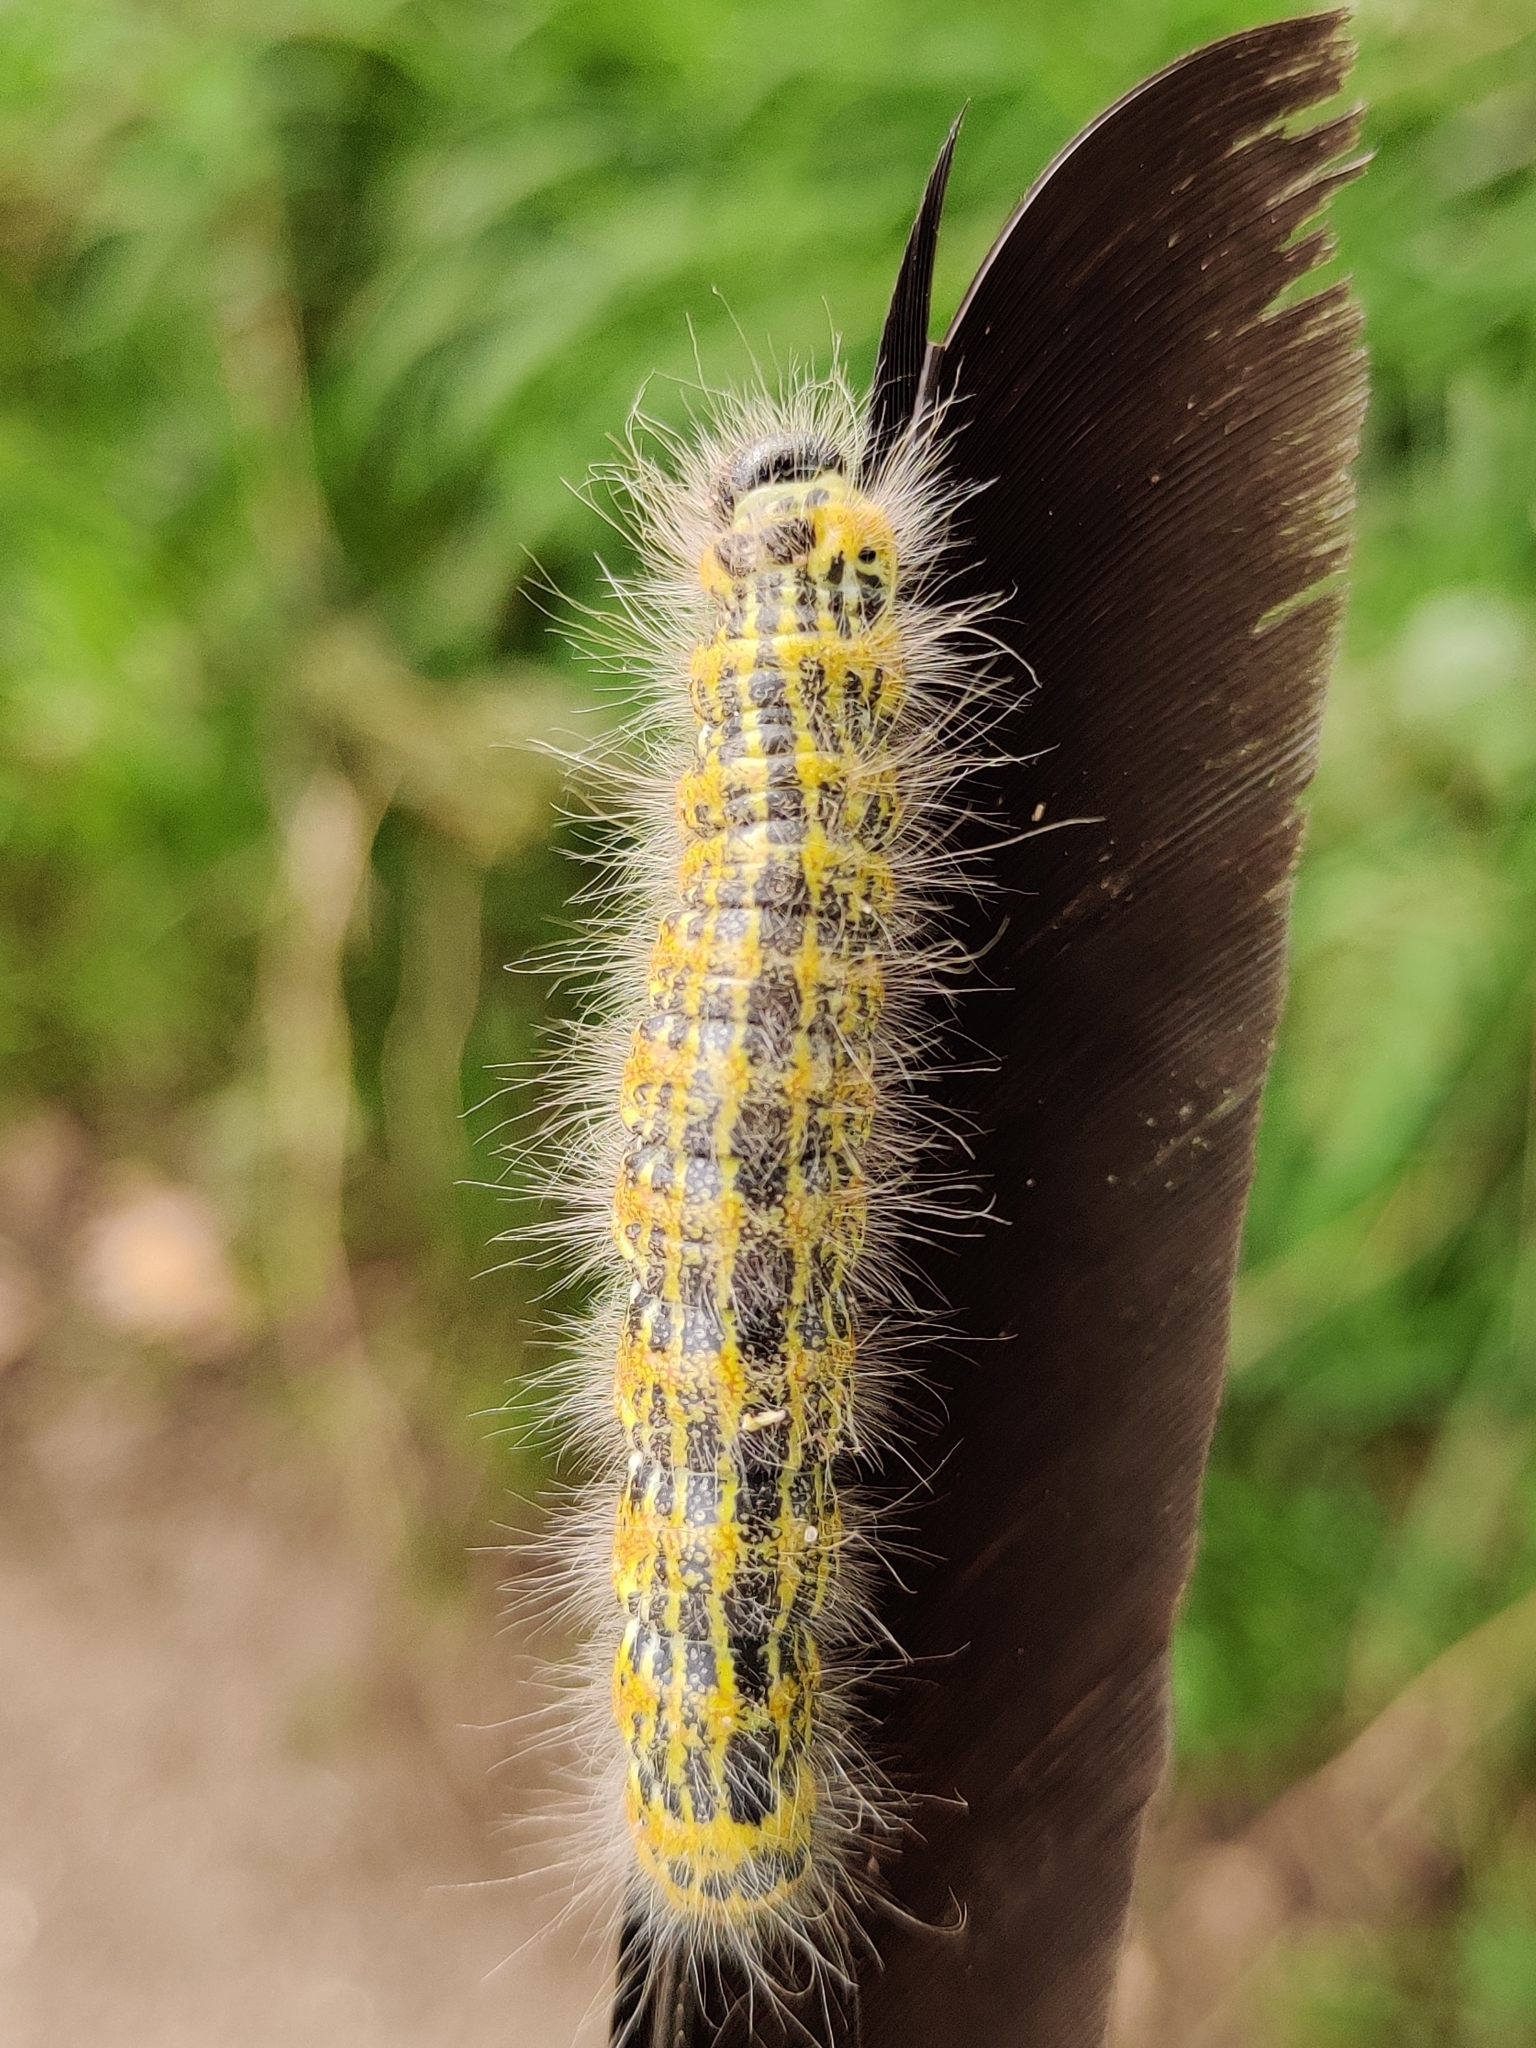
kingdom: Animalia
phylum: Arthropoda
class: Insecta
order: Lepidoptera
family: Notodontidae
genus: Phalera
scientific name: Phalera bucephala
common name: Buff-tip
